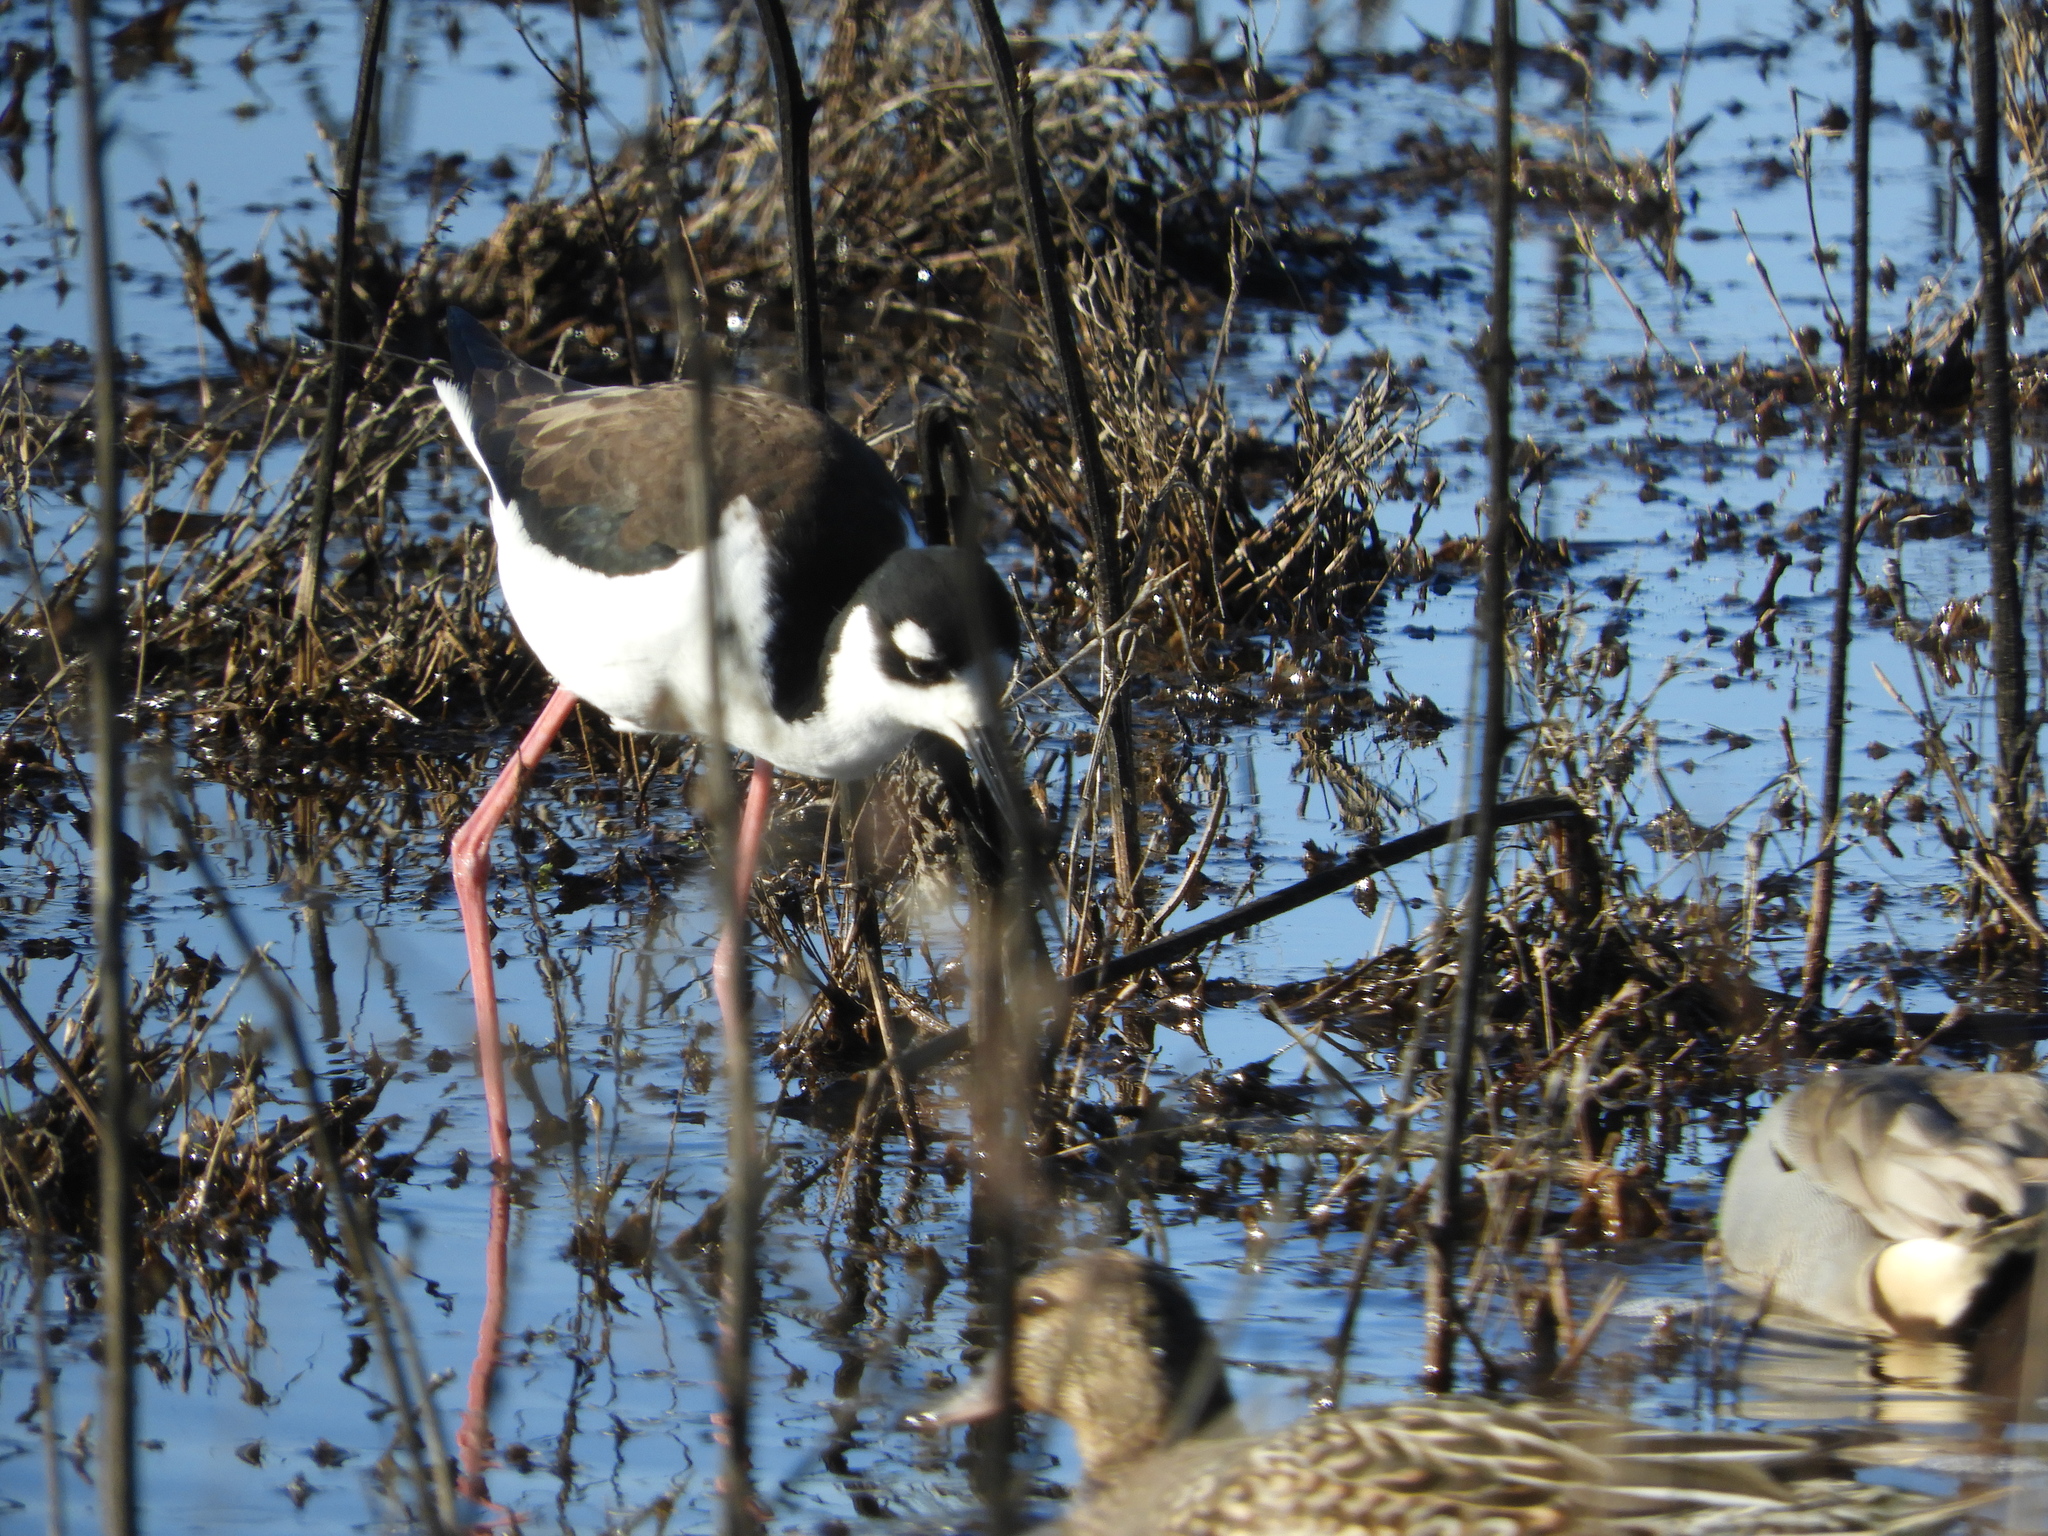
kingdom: Animalia
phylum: Chordata
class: Aves
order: Charadriiformes
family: Recurvirostridae
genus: Himantopus
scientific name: Himantopus mexicanus
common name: Black-necked stilt
